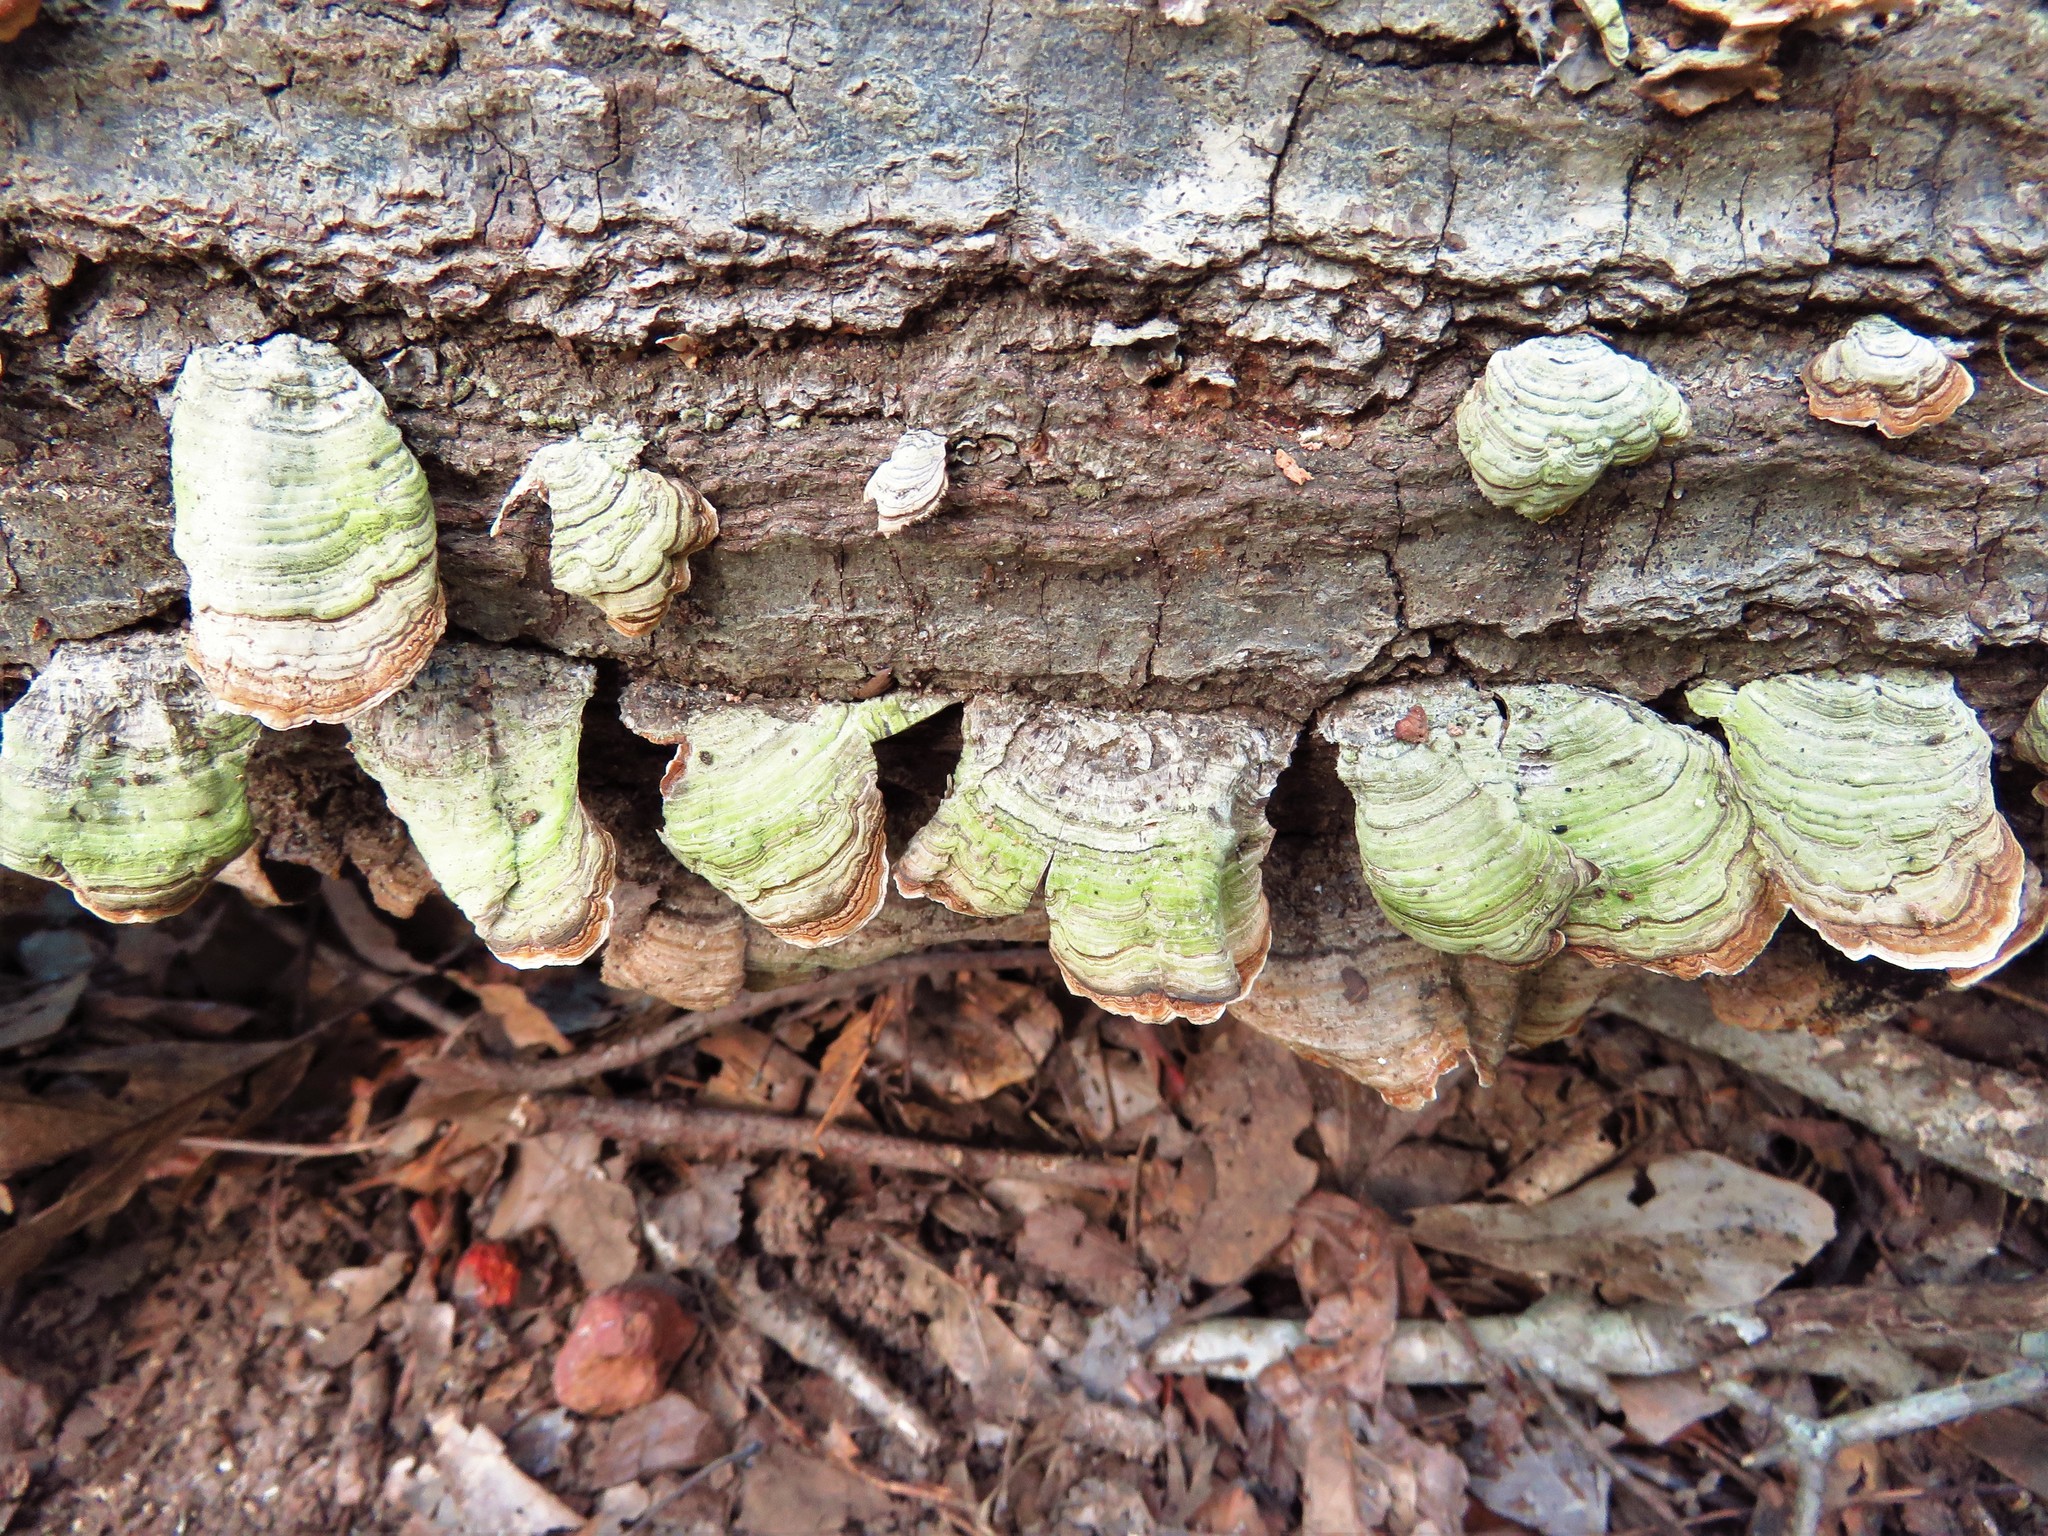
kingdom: Fungi
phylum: Basidiomycota
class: Agaricomycetes
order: Russulales
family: Stereaceae
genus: Stereum
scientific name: Stereum ostrea
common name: False turkeytail
